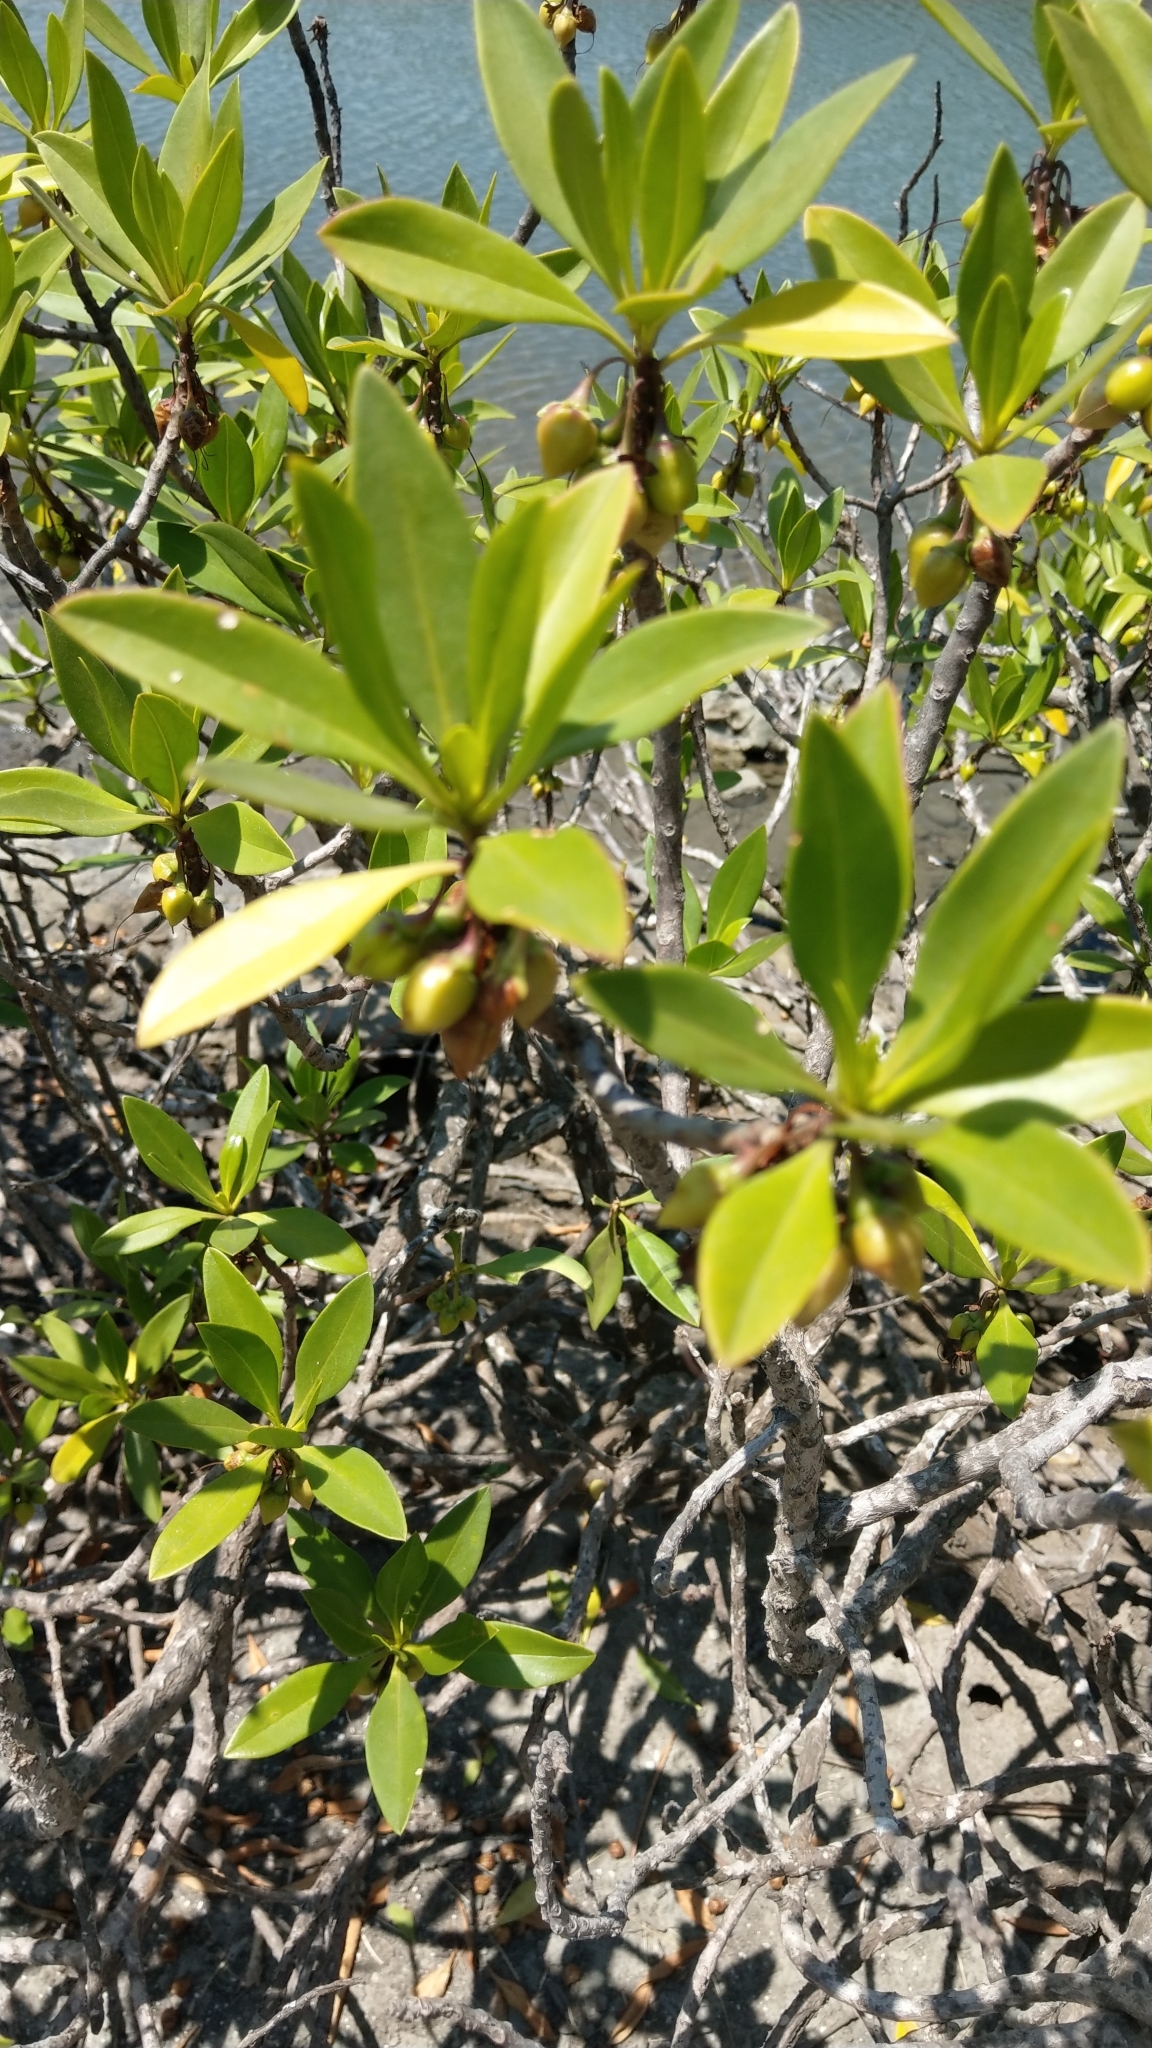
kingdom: Plantae
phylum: Tracheophyta
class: Magnoliopsida
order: Lamiales
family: Scrophulariaceae
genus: Myoporum
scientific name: Myoporum bontioides
